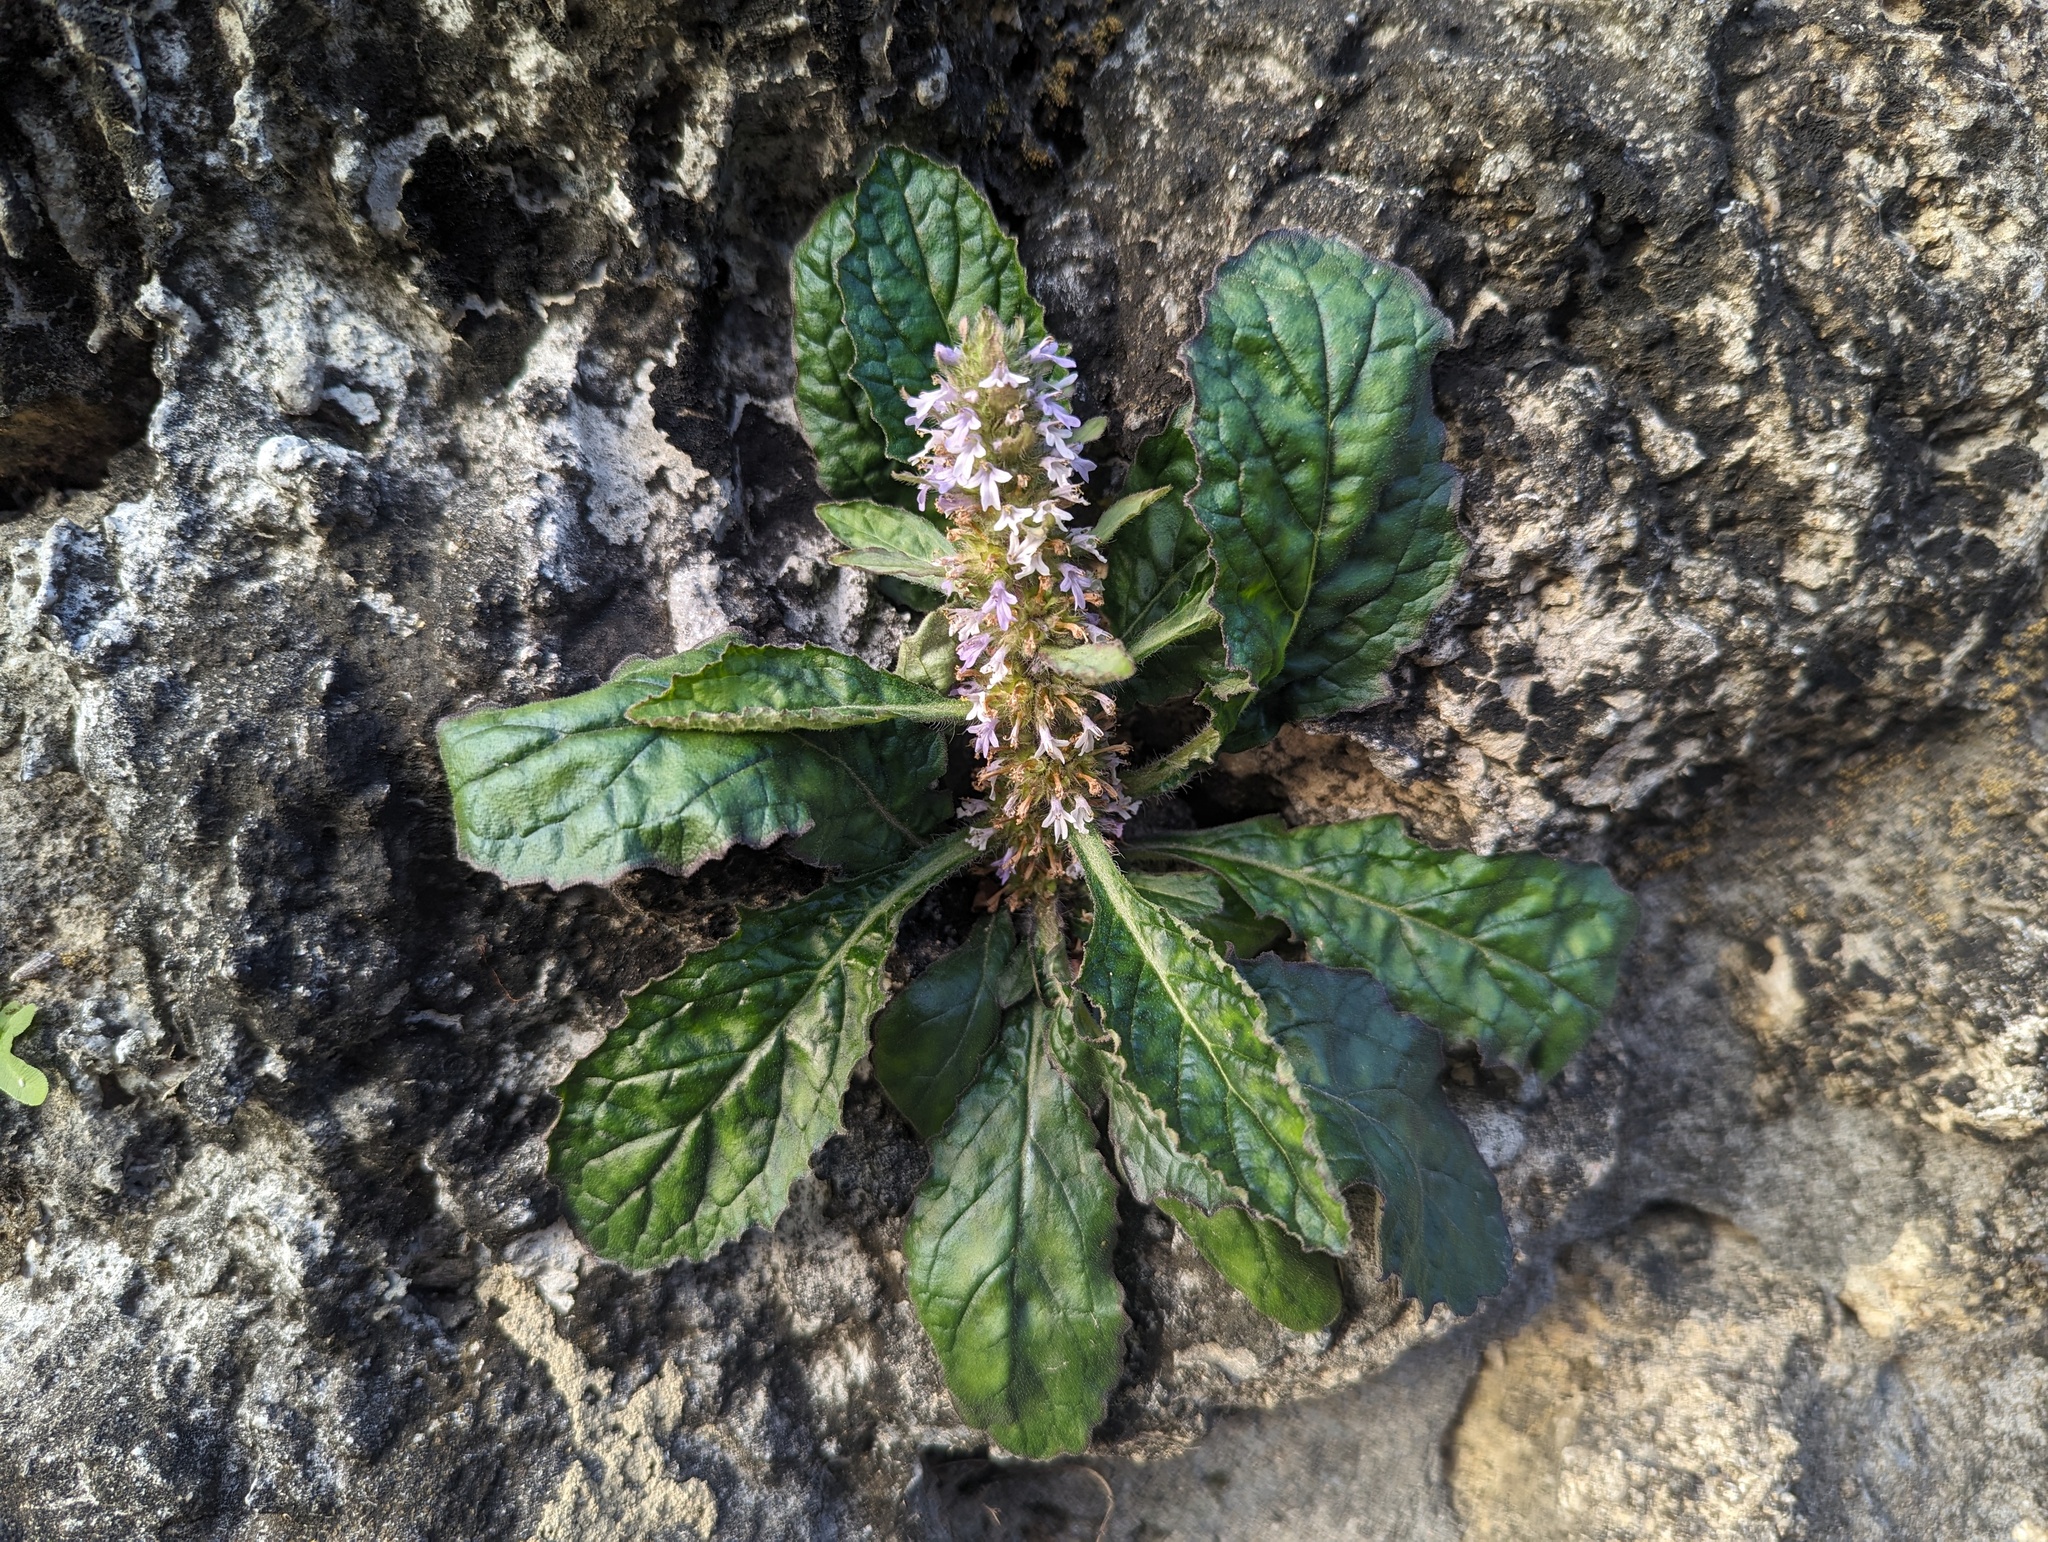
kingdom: Plantae
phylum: Tracheophyta
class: Magnoliopsida
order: Lamiales
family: Lamiaceae
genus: Ajuga
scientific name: Ajuga taiwanensis
